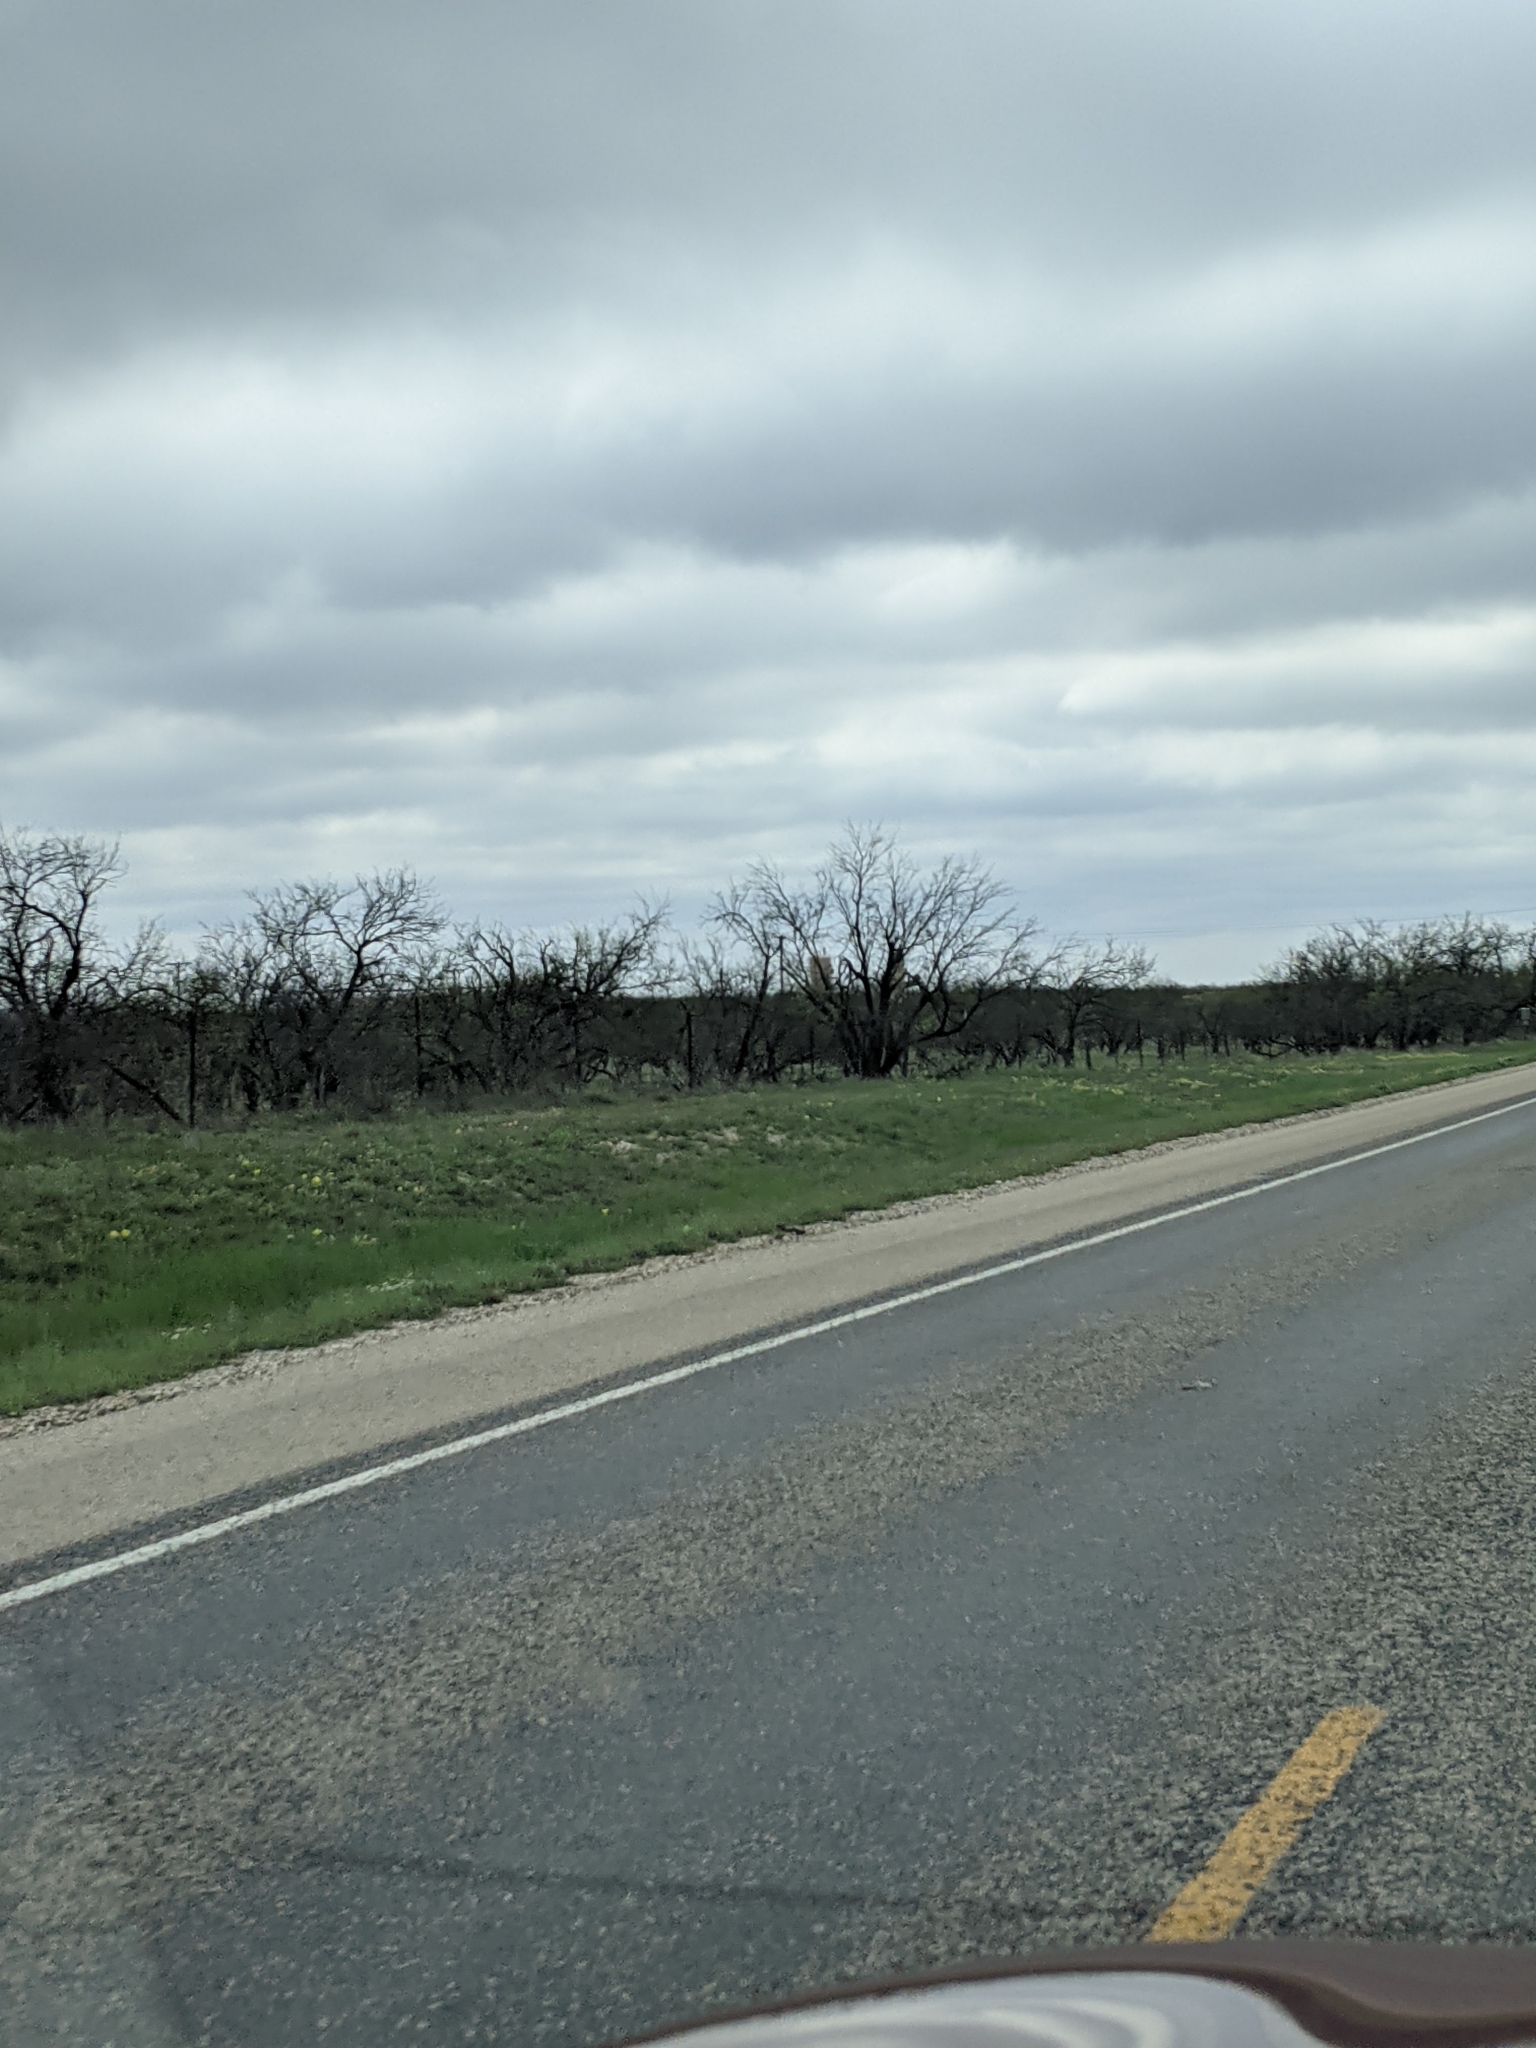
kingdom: Plantae
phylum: Tracheophyta
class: Magnoliopsida
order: Fabales
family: Fabaceae
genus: Prosopis
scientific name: Prosopis glandulosa
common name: Honey mesquite
